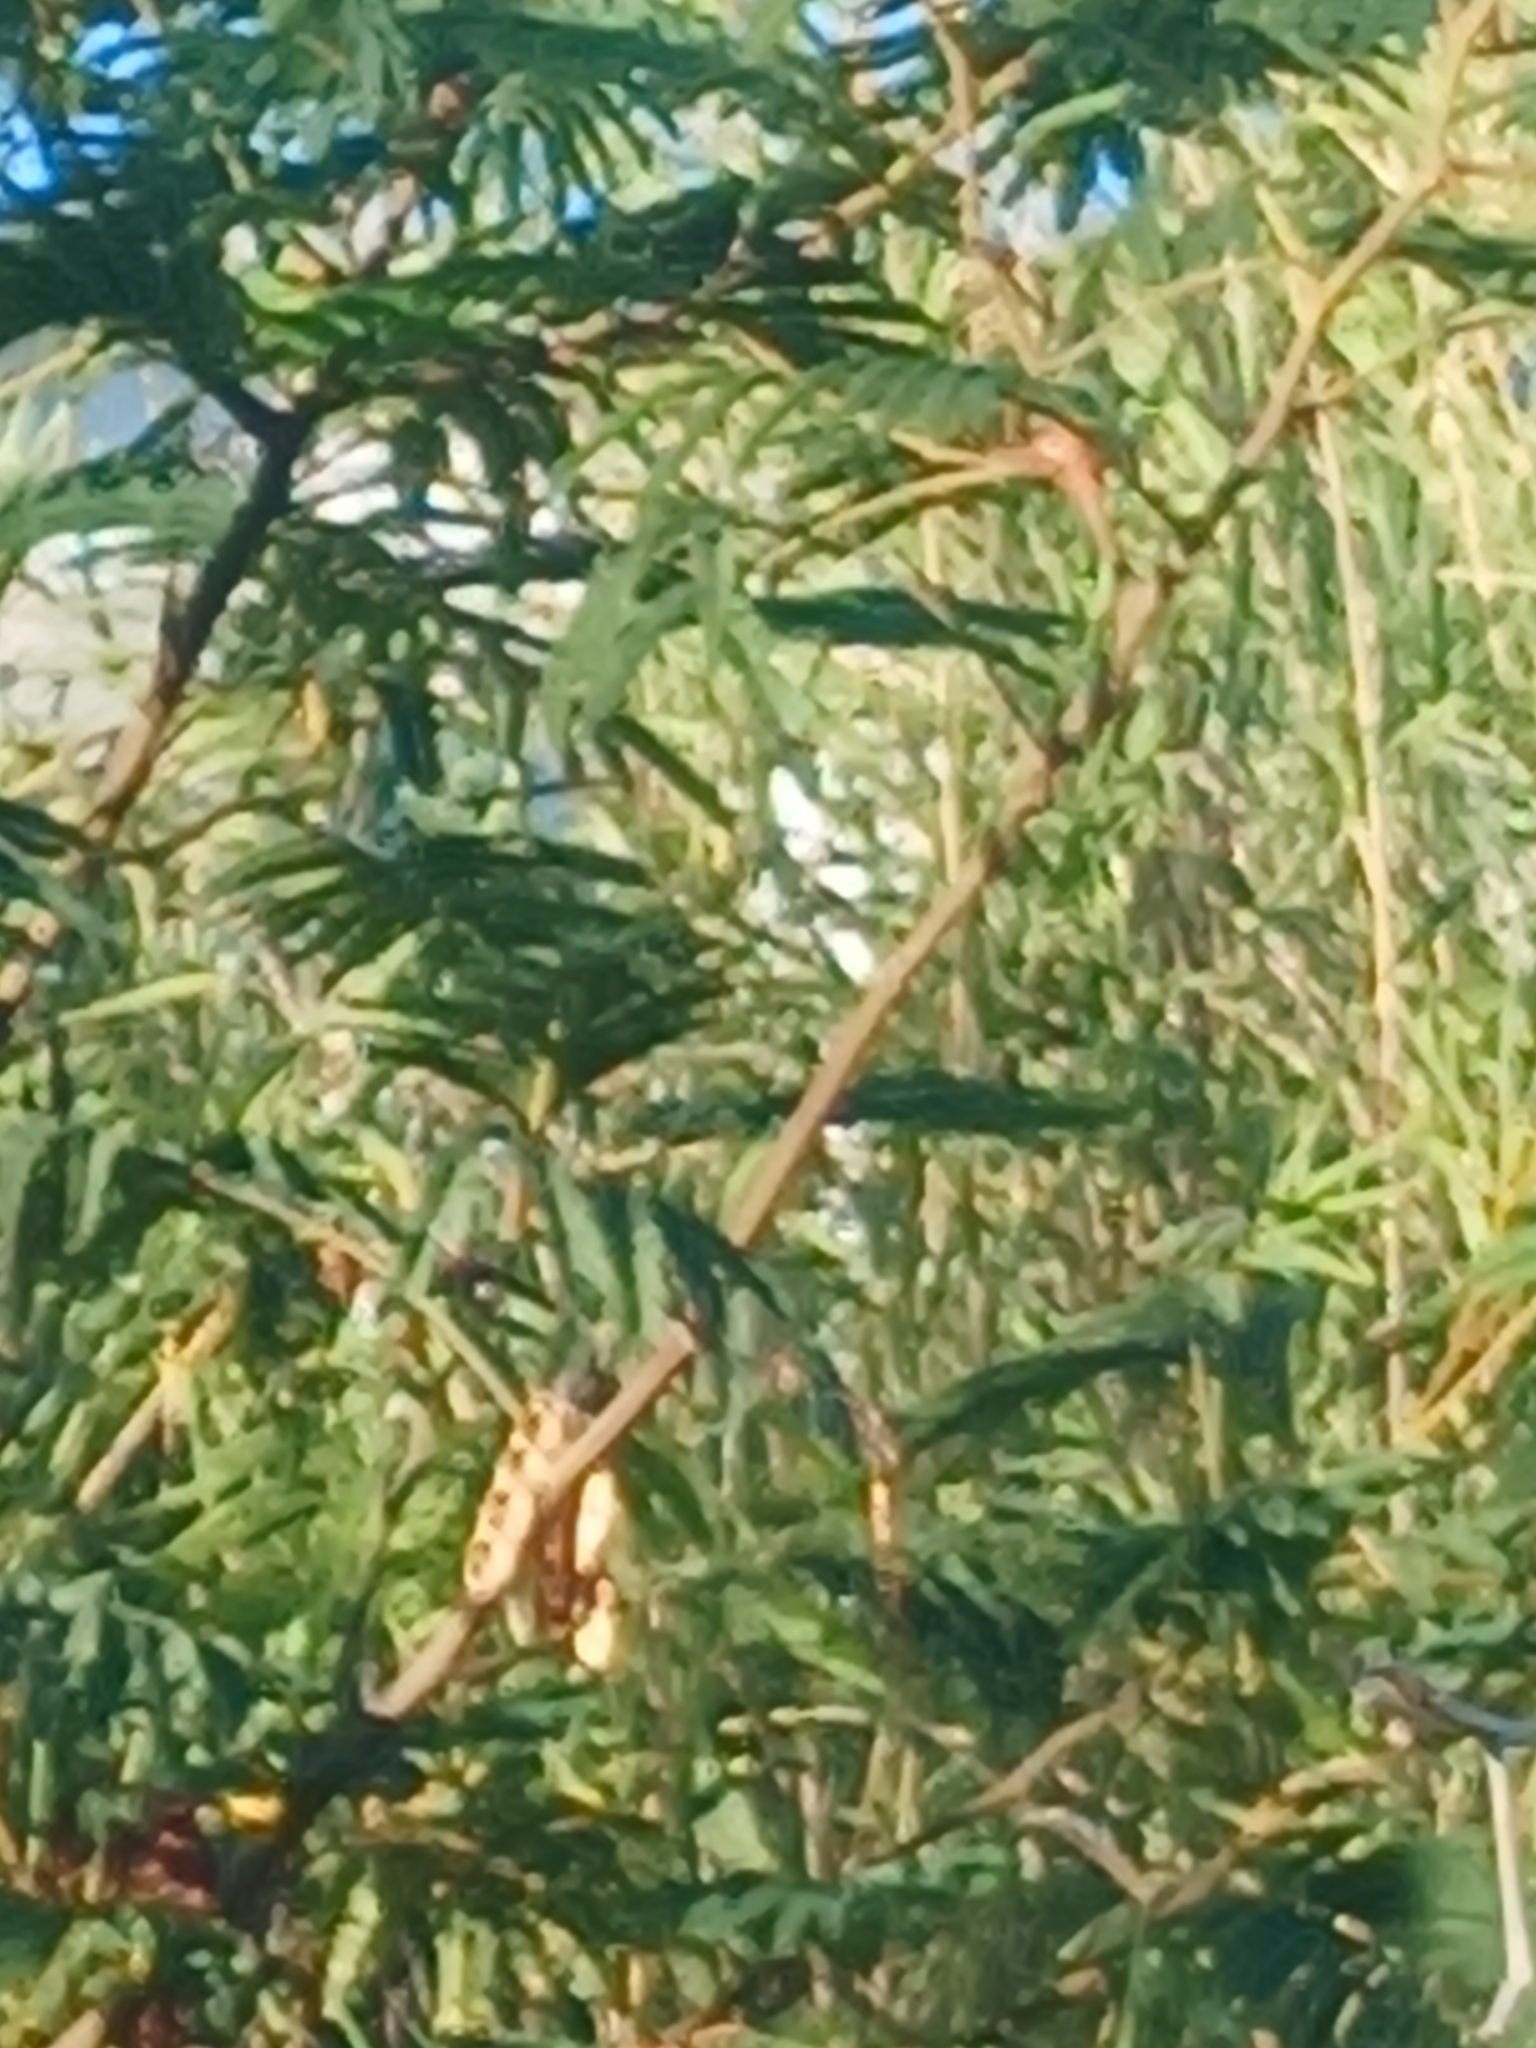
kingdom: Plantae
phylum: Tracheophyta
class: Magnoliopsida
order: Fabales
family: Fabaceae
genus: Paraserianthes
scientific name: Paraserianthes lophantha
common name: Plume albizia
